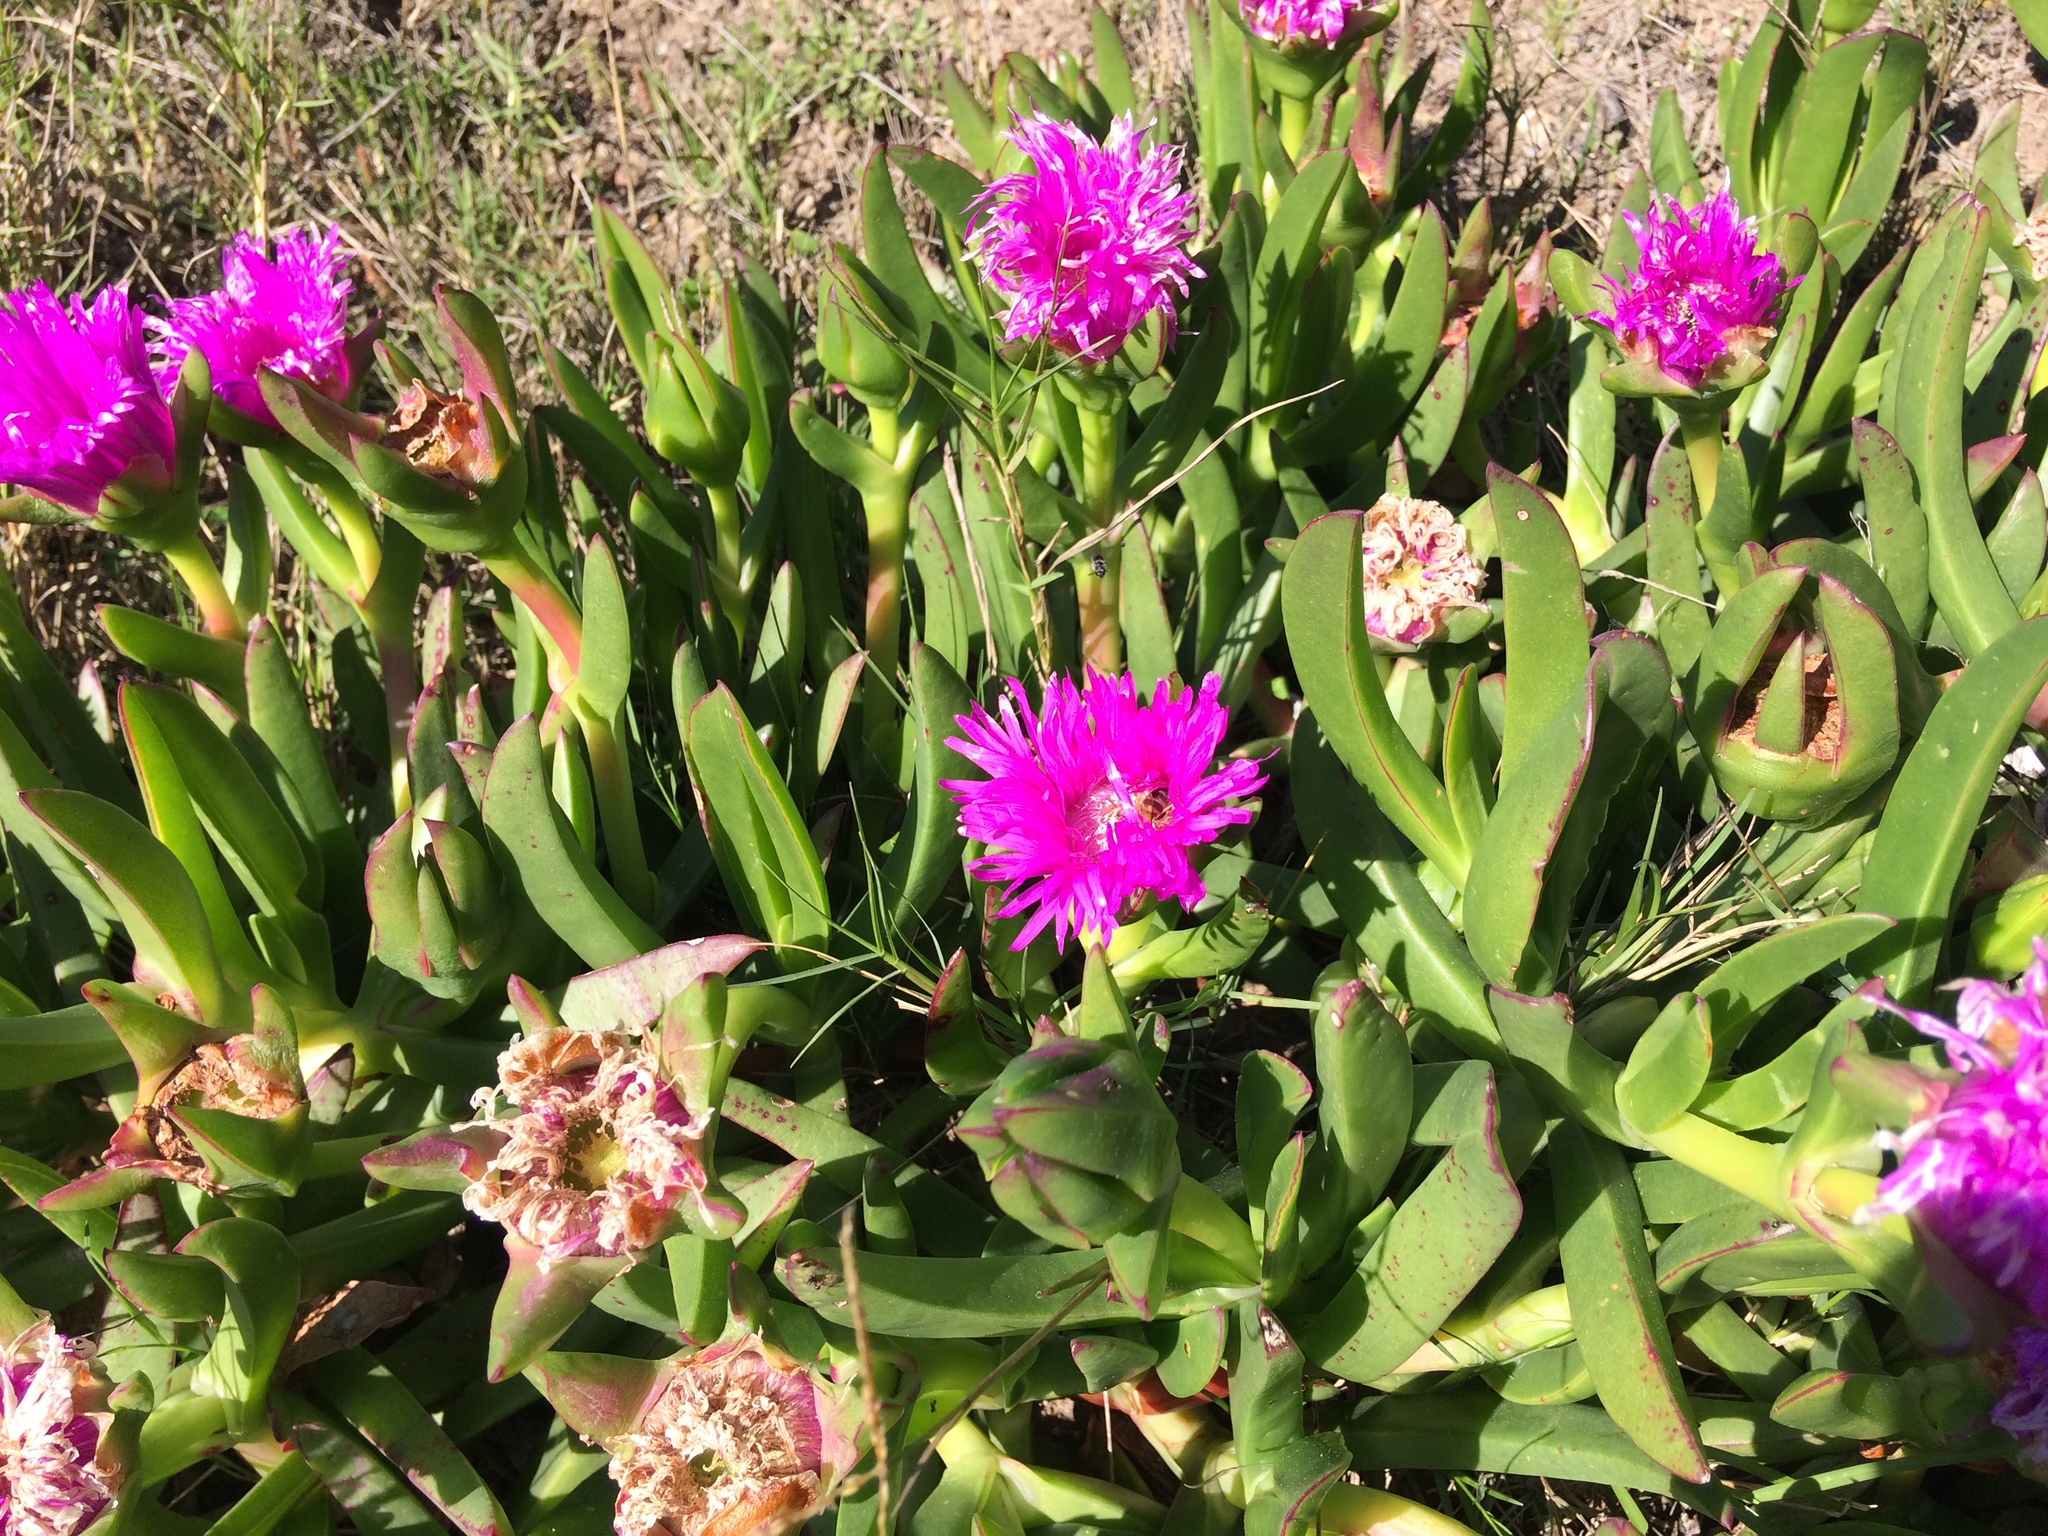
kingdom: Animalia
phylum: Arthropoda
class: Insecta
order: Hymenoptera
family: Apidae
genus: Apis
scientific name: Apis mellifera
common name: Honey bee
